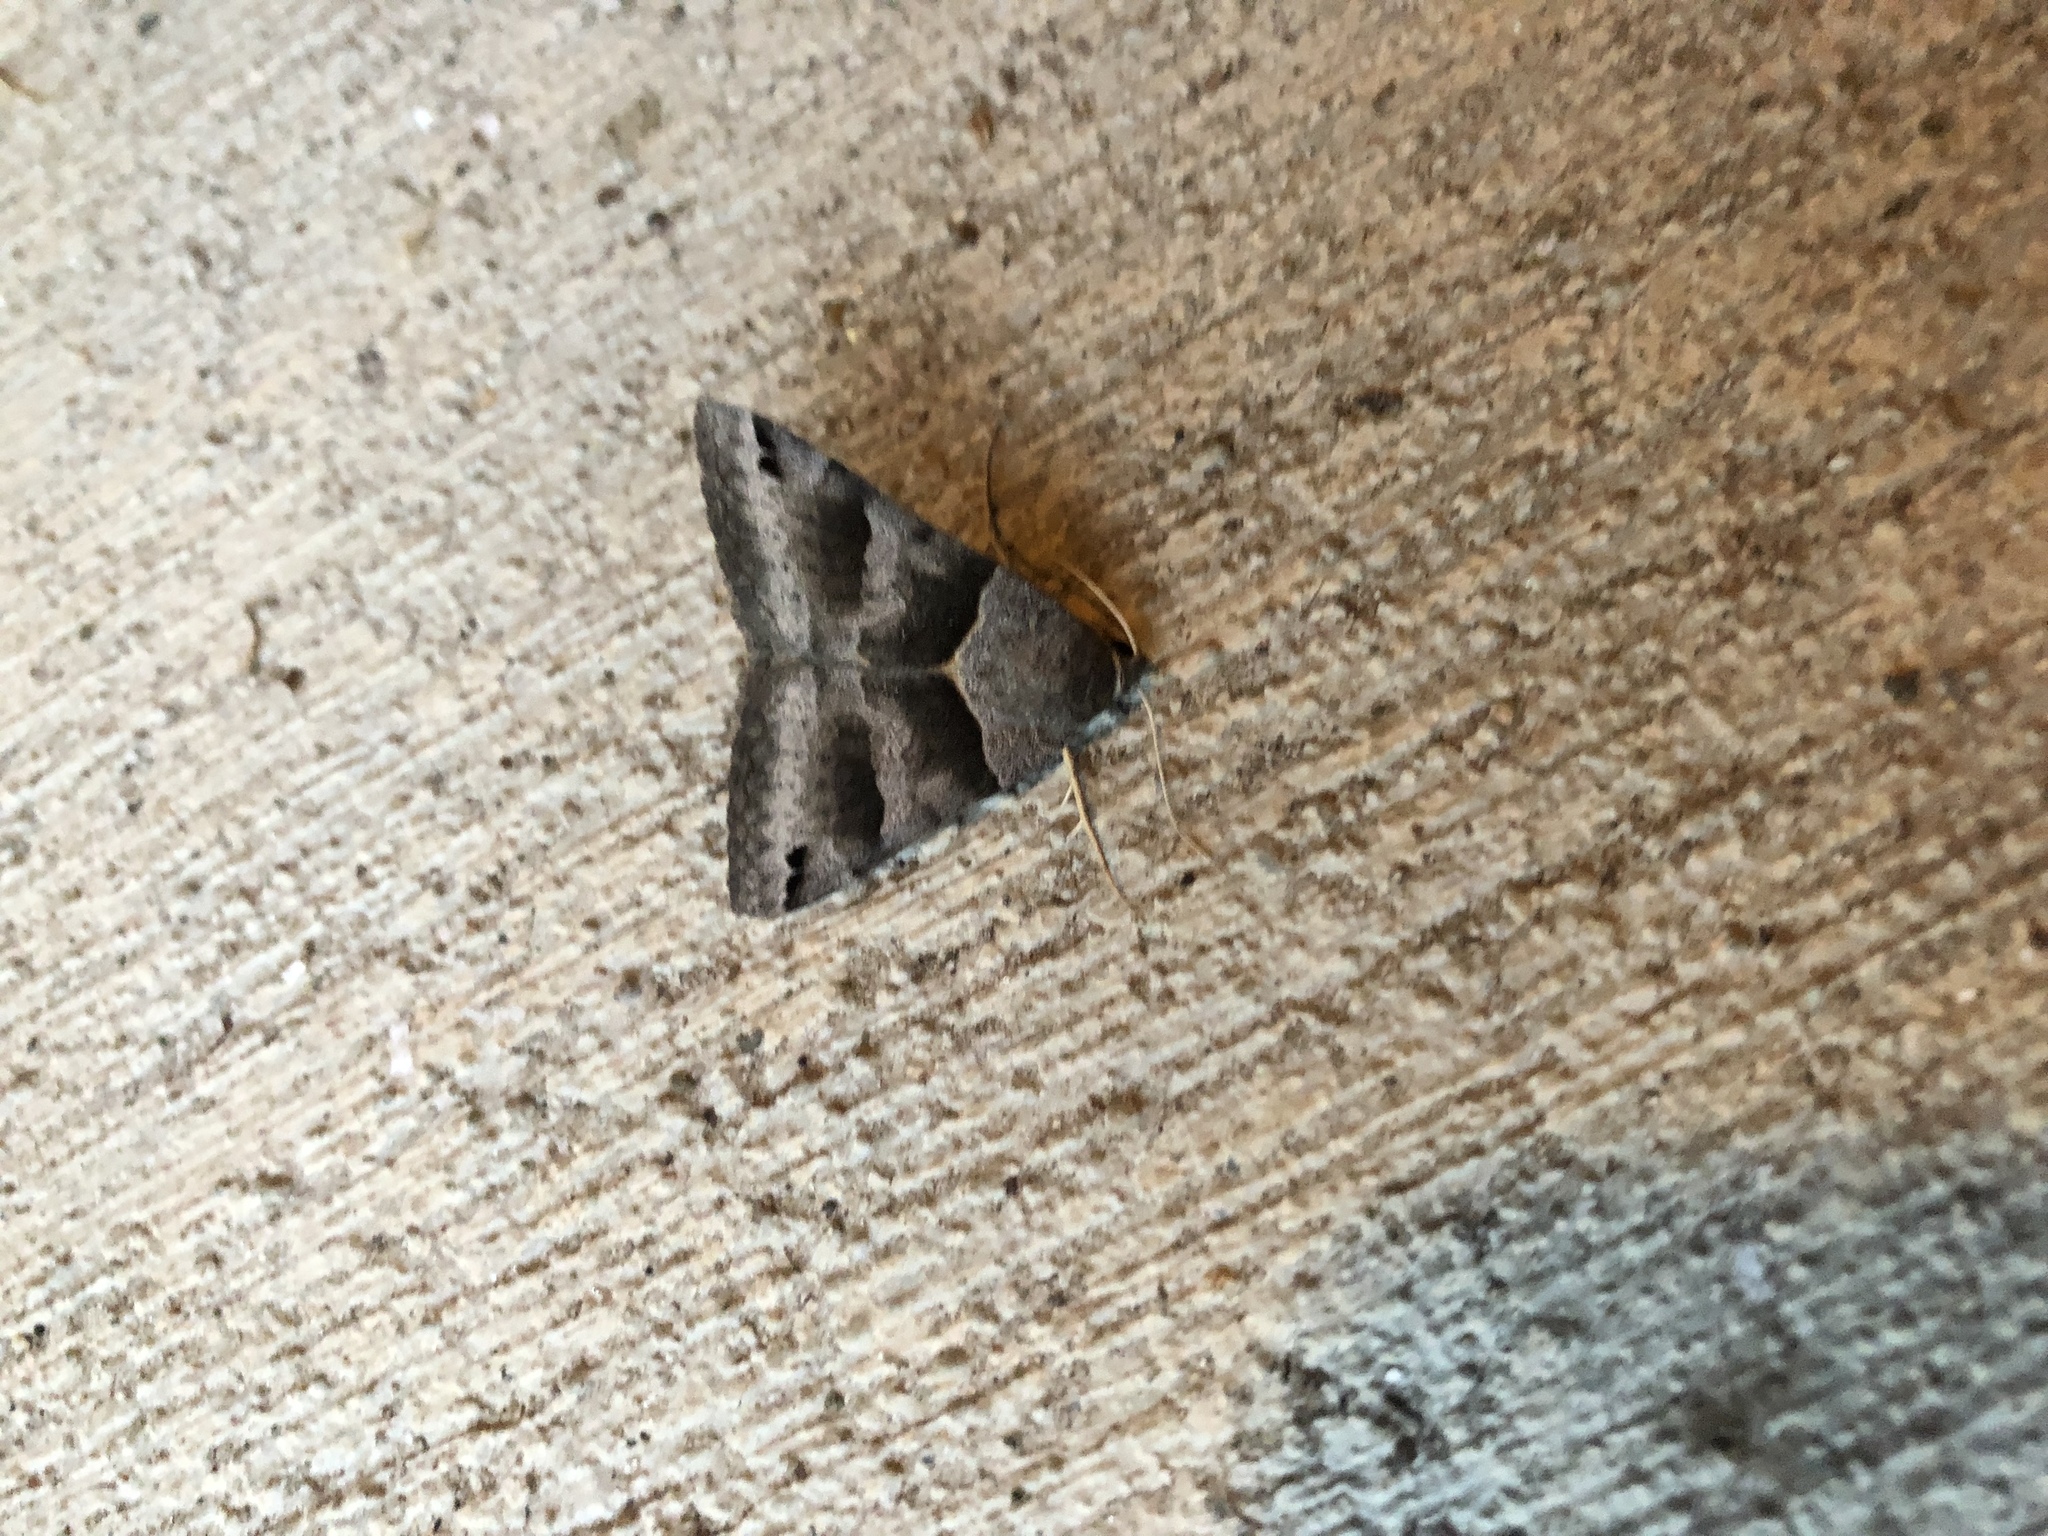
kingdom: Animalia
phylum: Arthropoda
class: Insecta
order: Lepidoptera
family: Erebidae
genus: Caenurgina
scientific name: Caenurgina erechtea
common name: Forage looper moth
